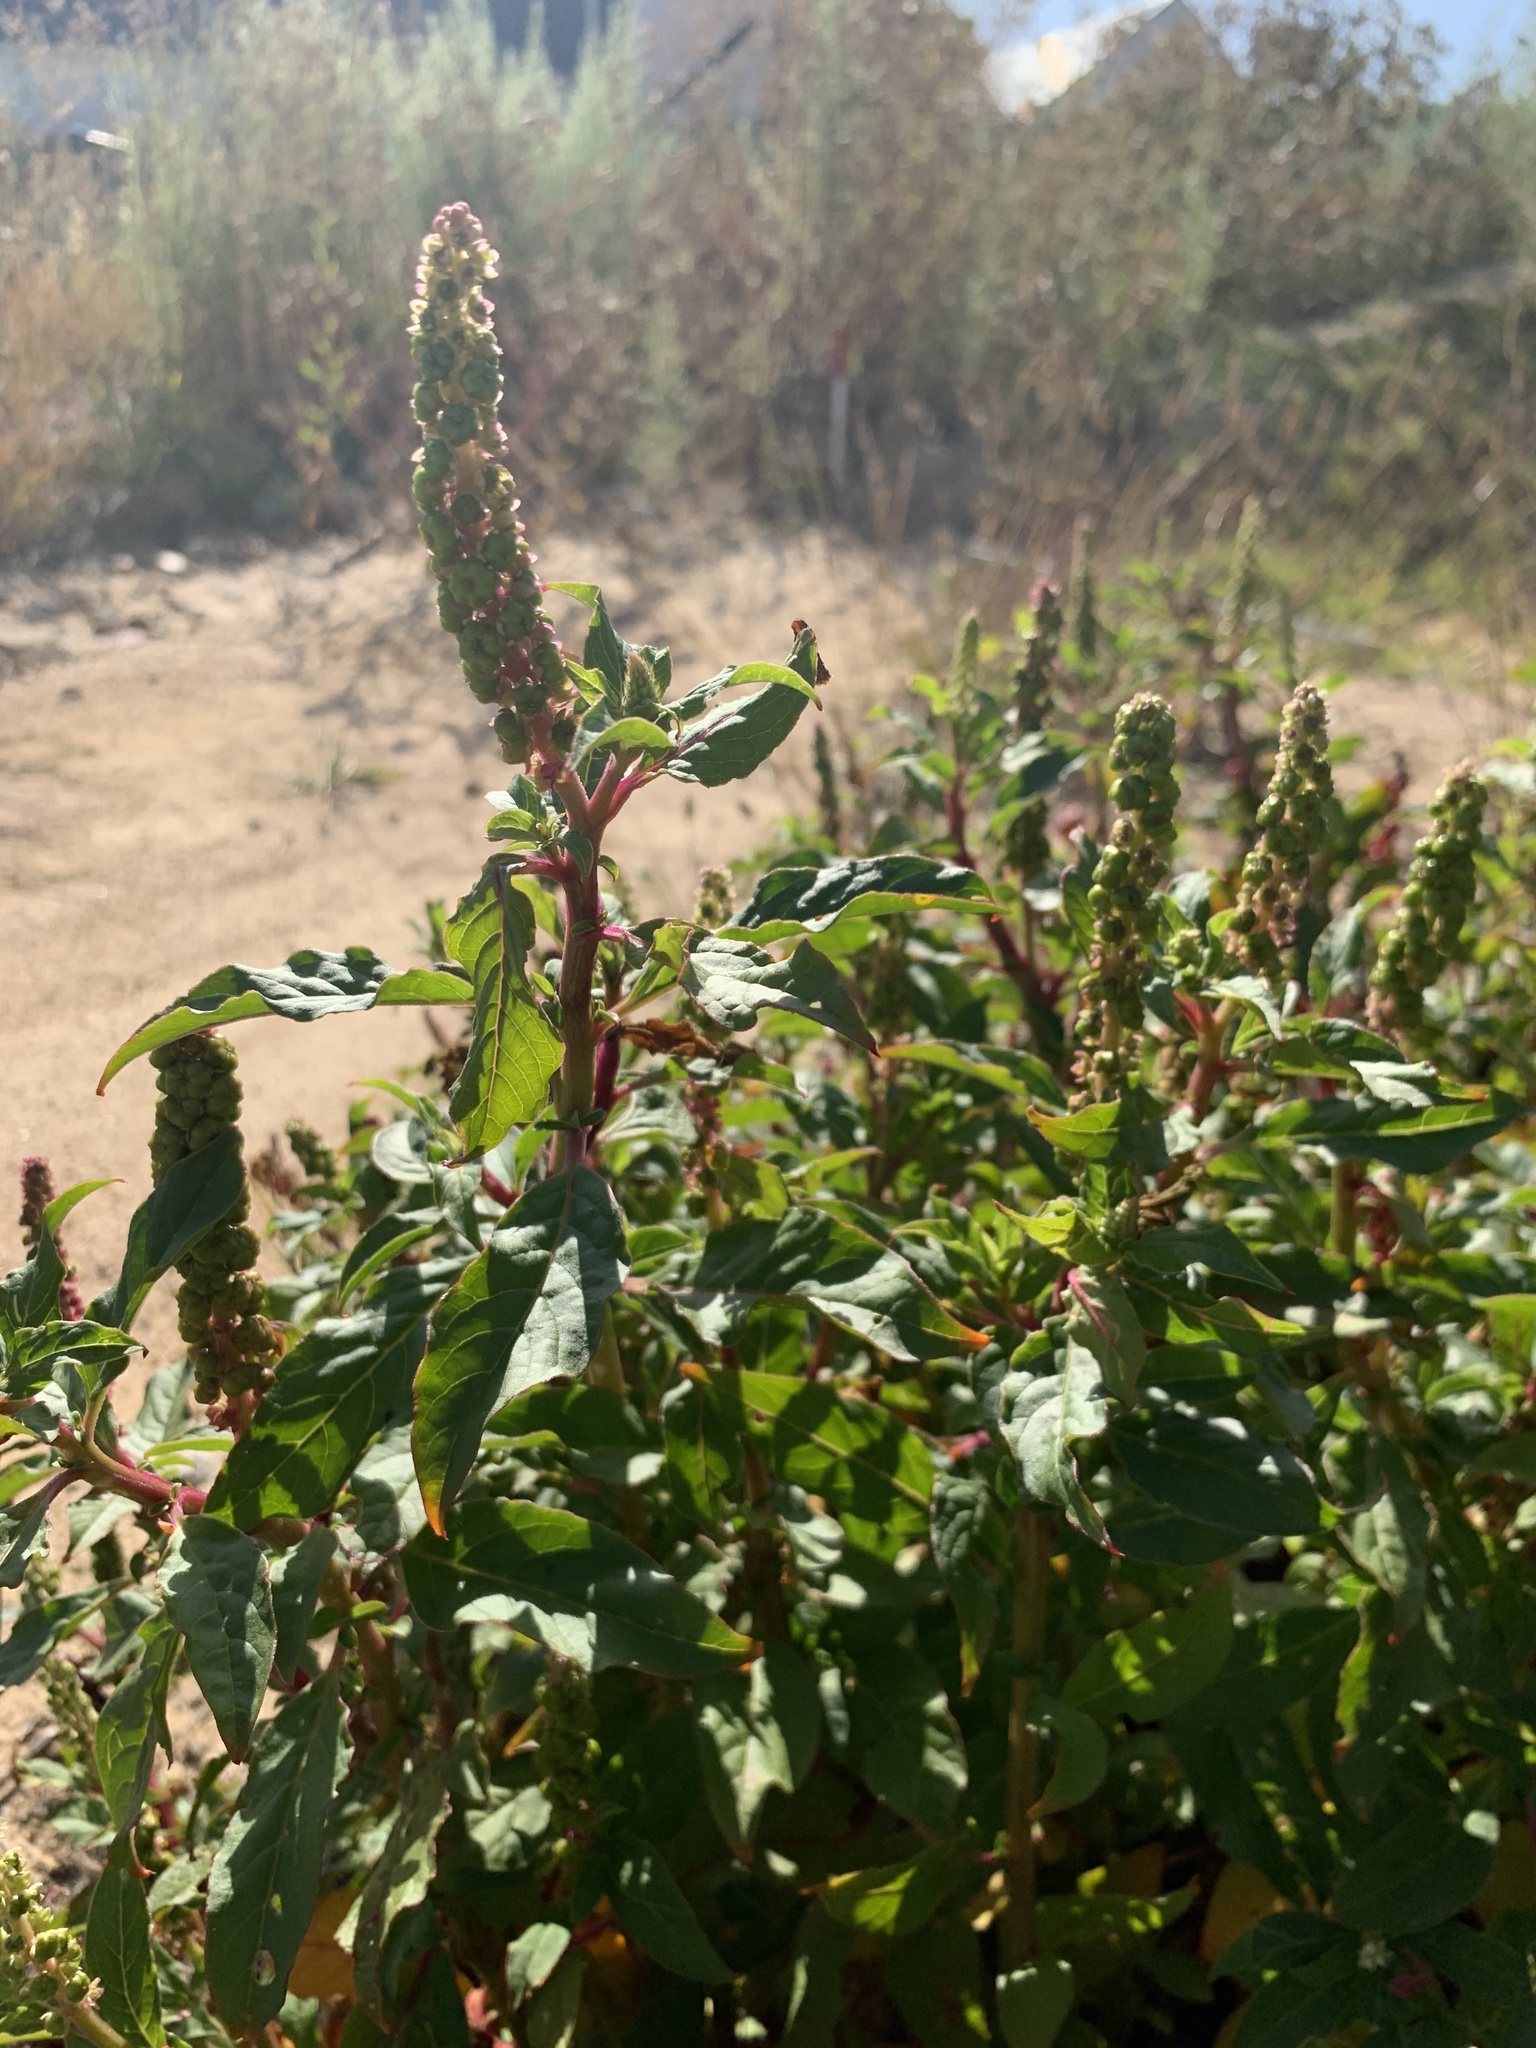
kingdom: Plantae
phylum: Tracheophyta
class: Magnoliopsida
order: Caryophyllales
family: Phytolaccaceae
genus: Phytolacca
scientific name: Phytolacca icosandra
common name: Button pokeweed
